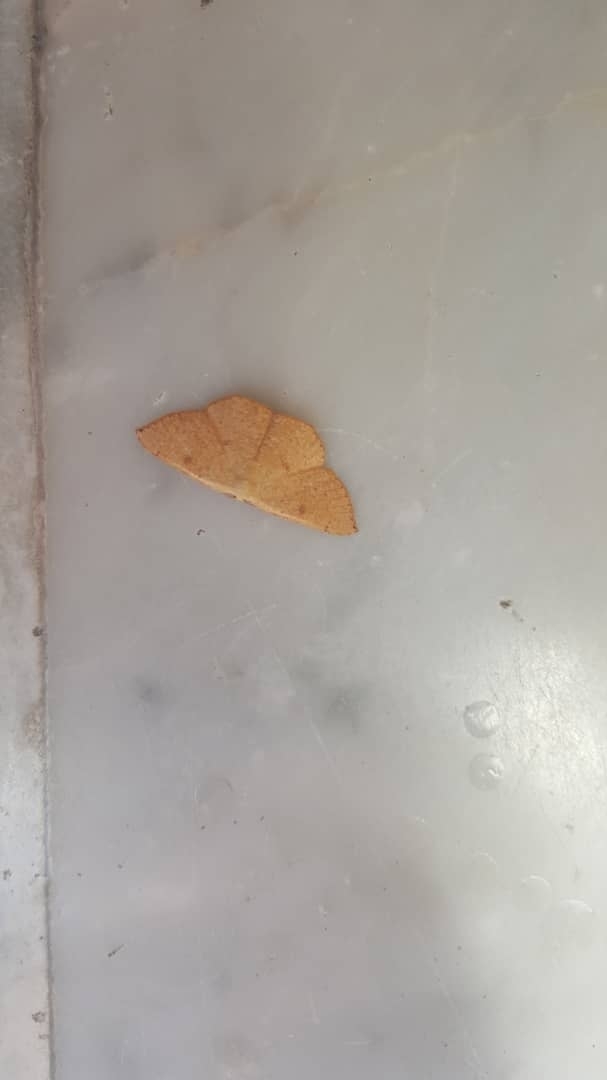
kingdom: Animalia
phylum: Arthropoda
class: Insecta
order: Lepidoptera
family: Geometridae
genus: Cyclophora
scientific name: Cyclophora puppillaria
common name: Blair's mocha
